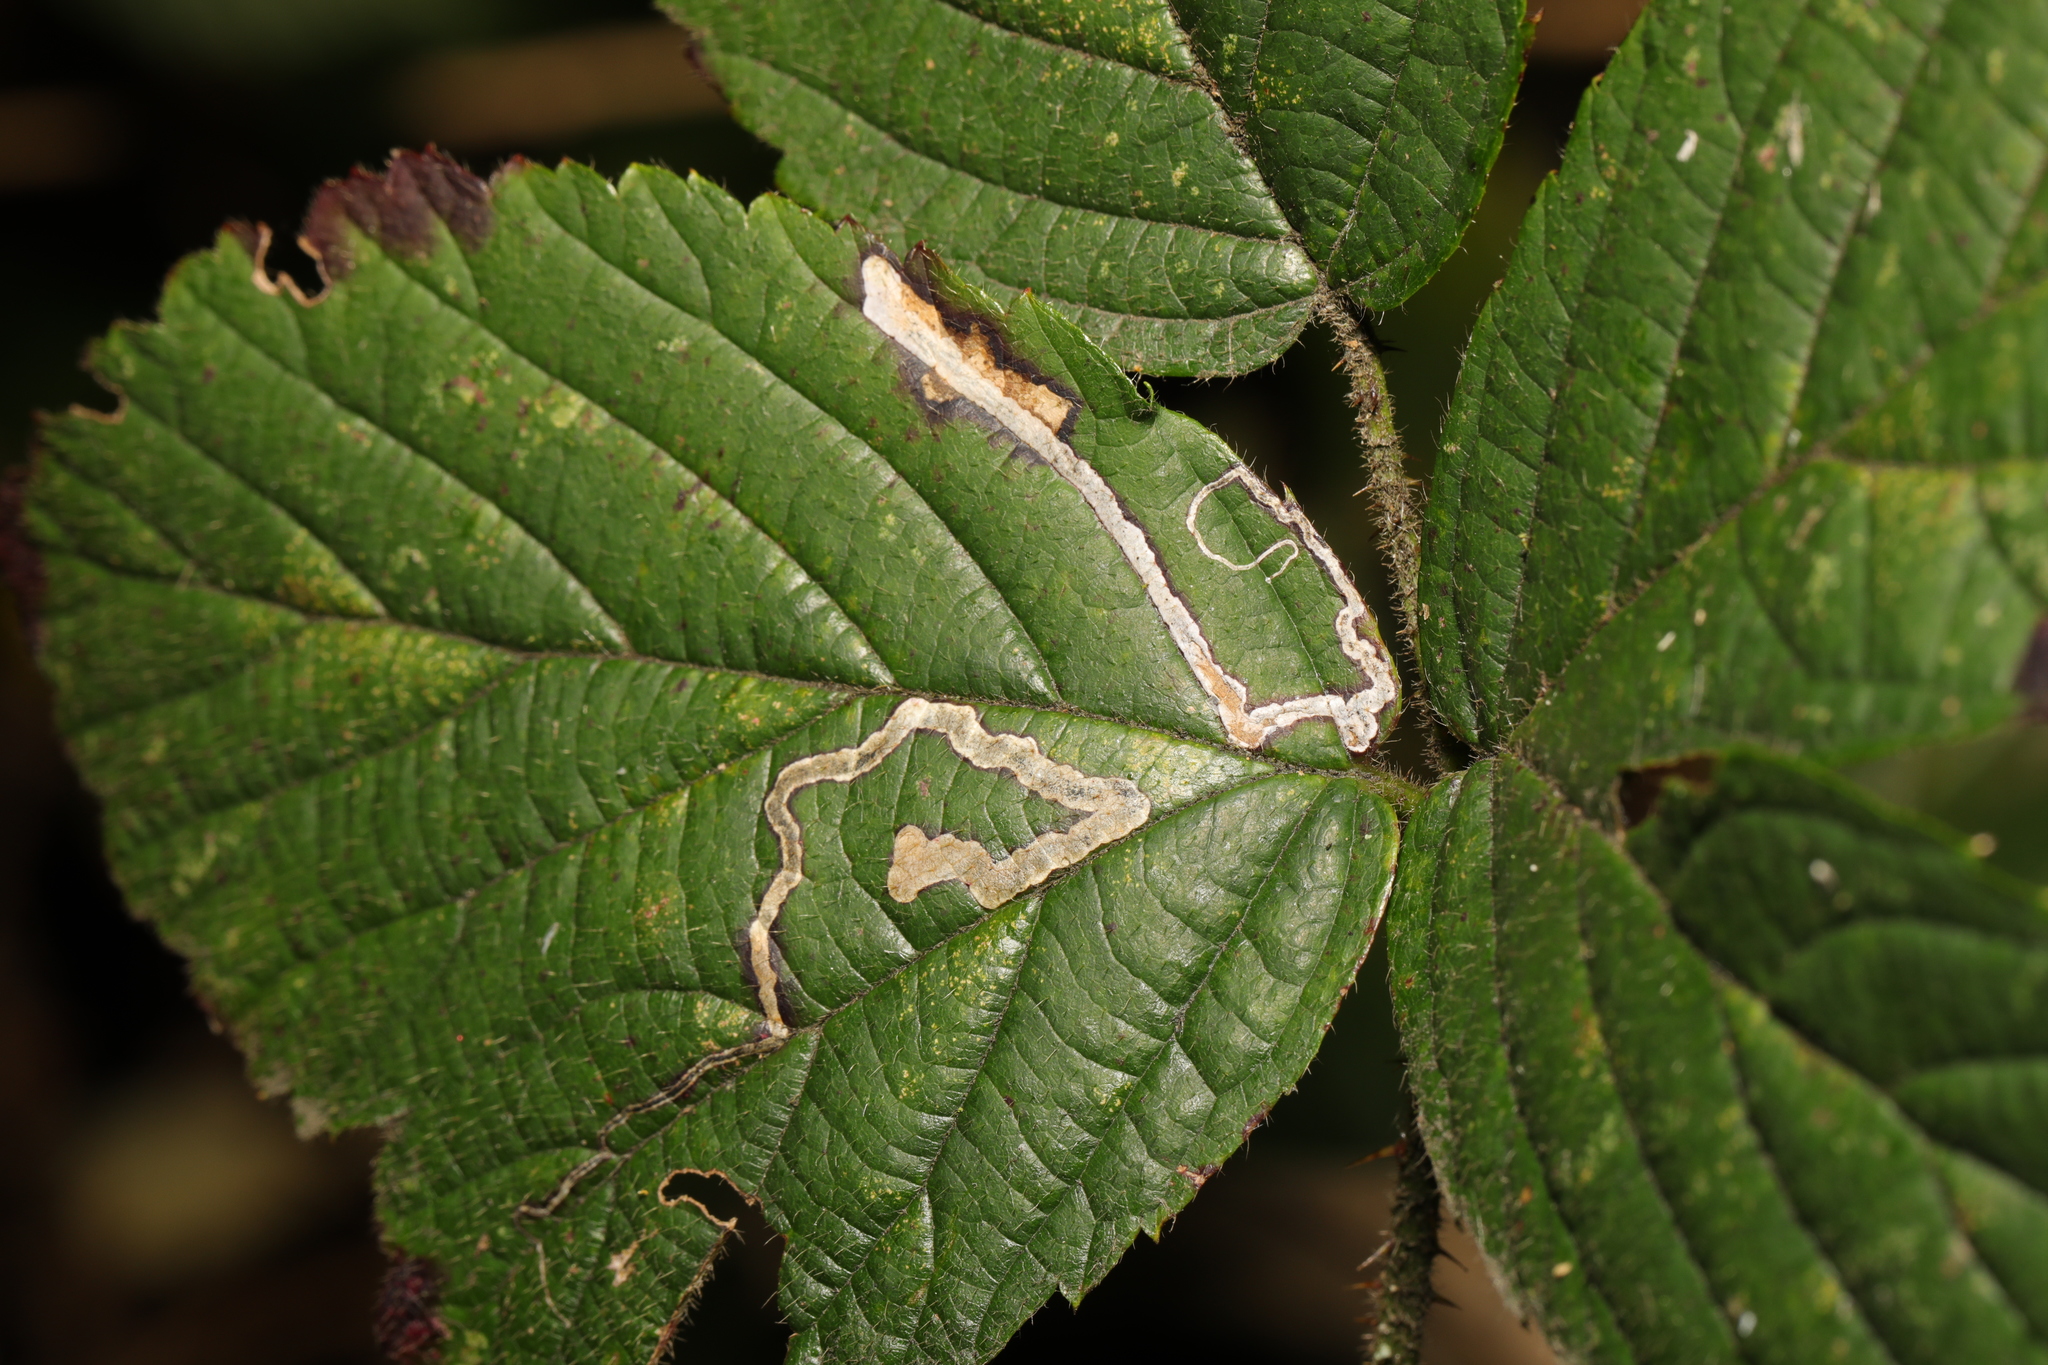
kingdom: Animalia
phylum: Arthropoda
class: Insecta
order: Lepidoptera
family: Nepticulidae
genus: Stigmella
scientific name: Stigmella aurella
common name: Golden pigmy
